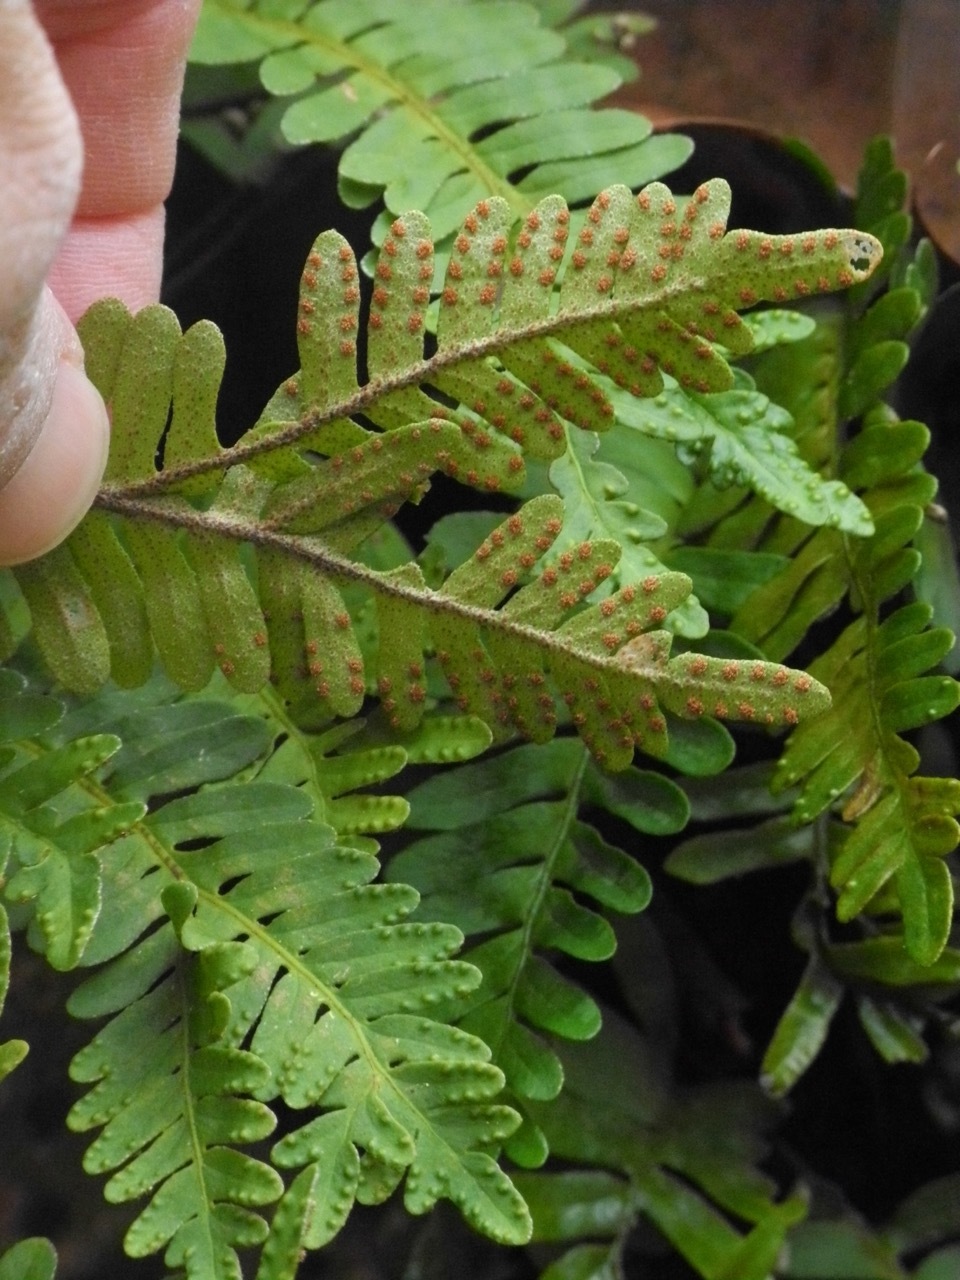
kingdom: Plantae
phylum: Tracheophyta
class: Polypodiopsida
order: Polypodiales
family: Polypodiaceae
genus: Pleopeltis
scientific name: Pleopeltis michauxiana
